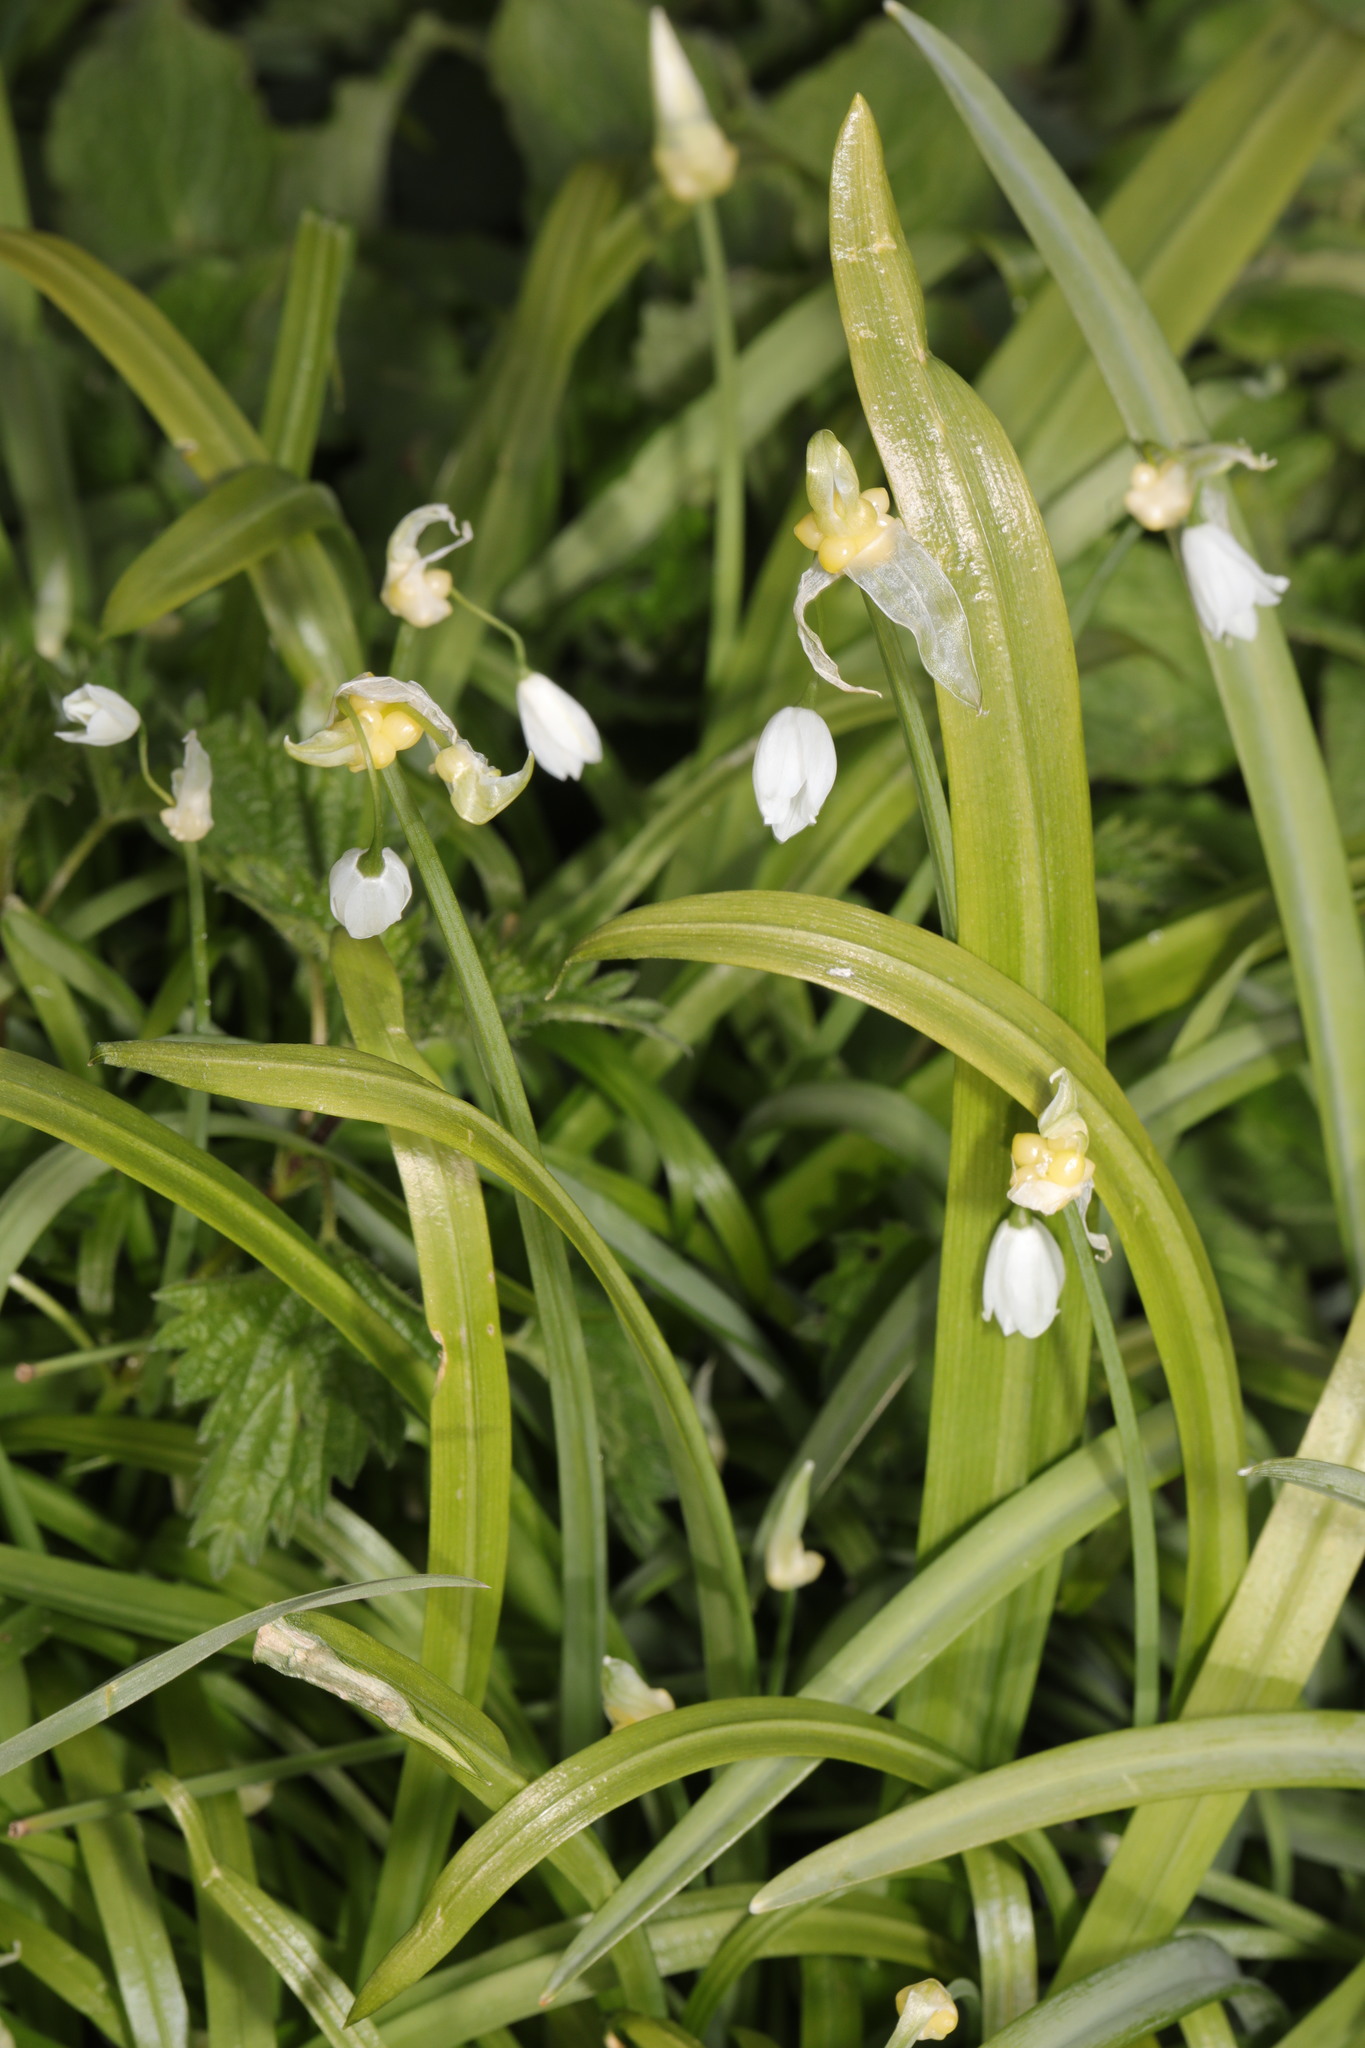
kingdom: Plantae
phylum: Tracheophyta
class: Liliopsida
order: Asparagales
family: Amaryllidaceae
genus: Allium
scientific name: Allium paradoxum
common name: Few-flowered garlic
